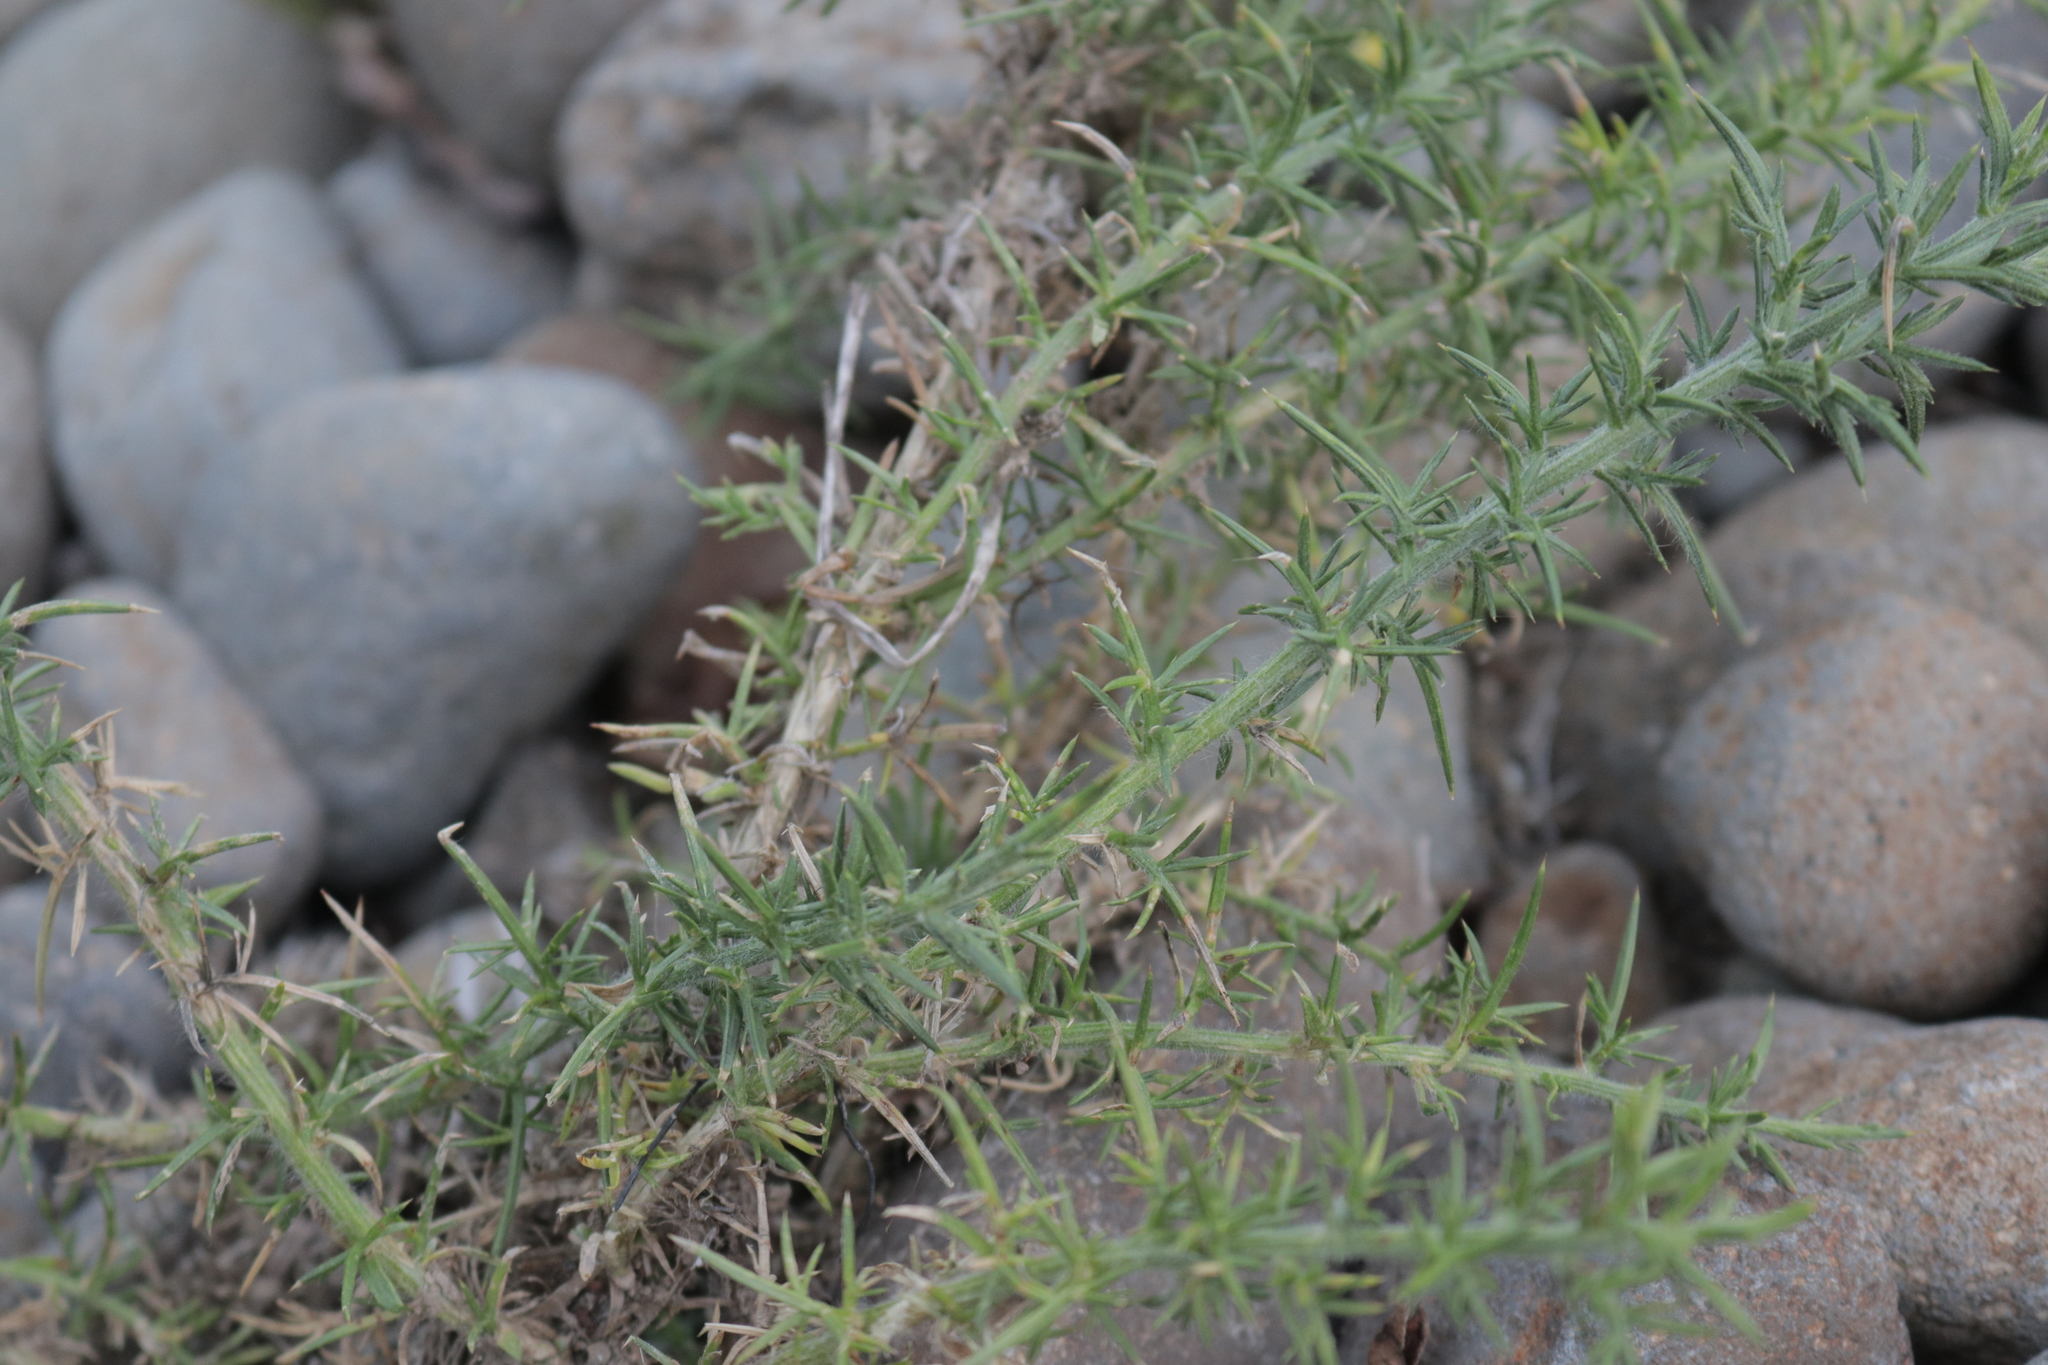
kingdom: Plantae
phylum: Tracheophyta
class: Magnoliopsida
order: Fabales
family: Fabaceae
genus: Ulex
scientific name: Ulex europaeus
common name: Common gorse
